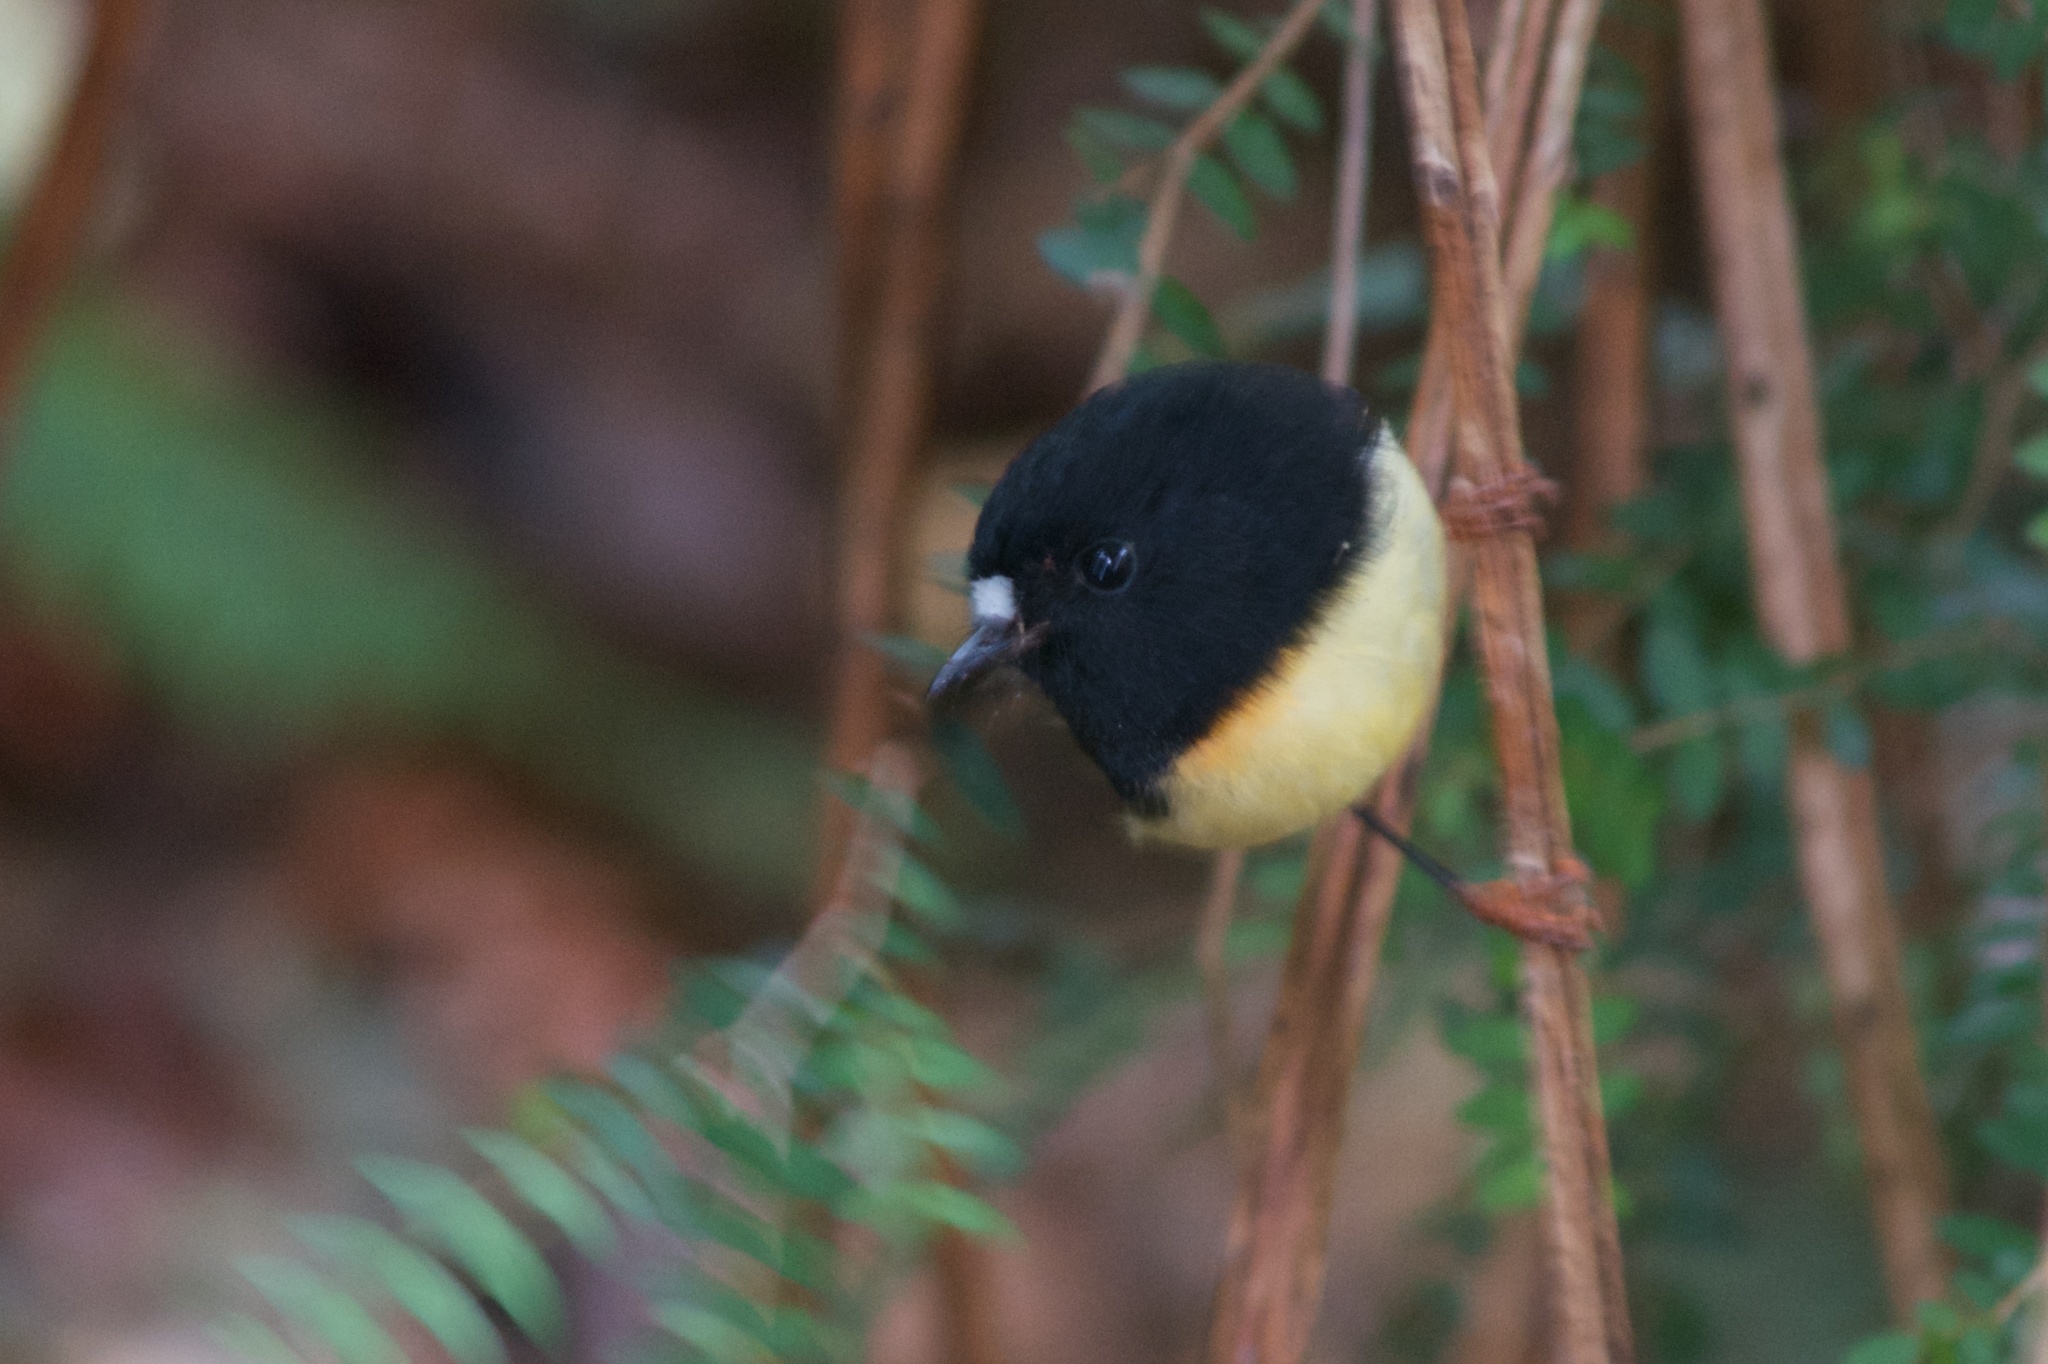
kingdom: Animalia
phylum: Chordata
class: Aves
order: Passeriformes
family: Petroicidae
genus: Petroica
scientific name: Petroica macrocephala
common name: Tomtit
